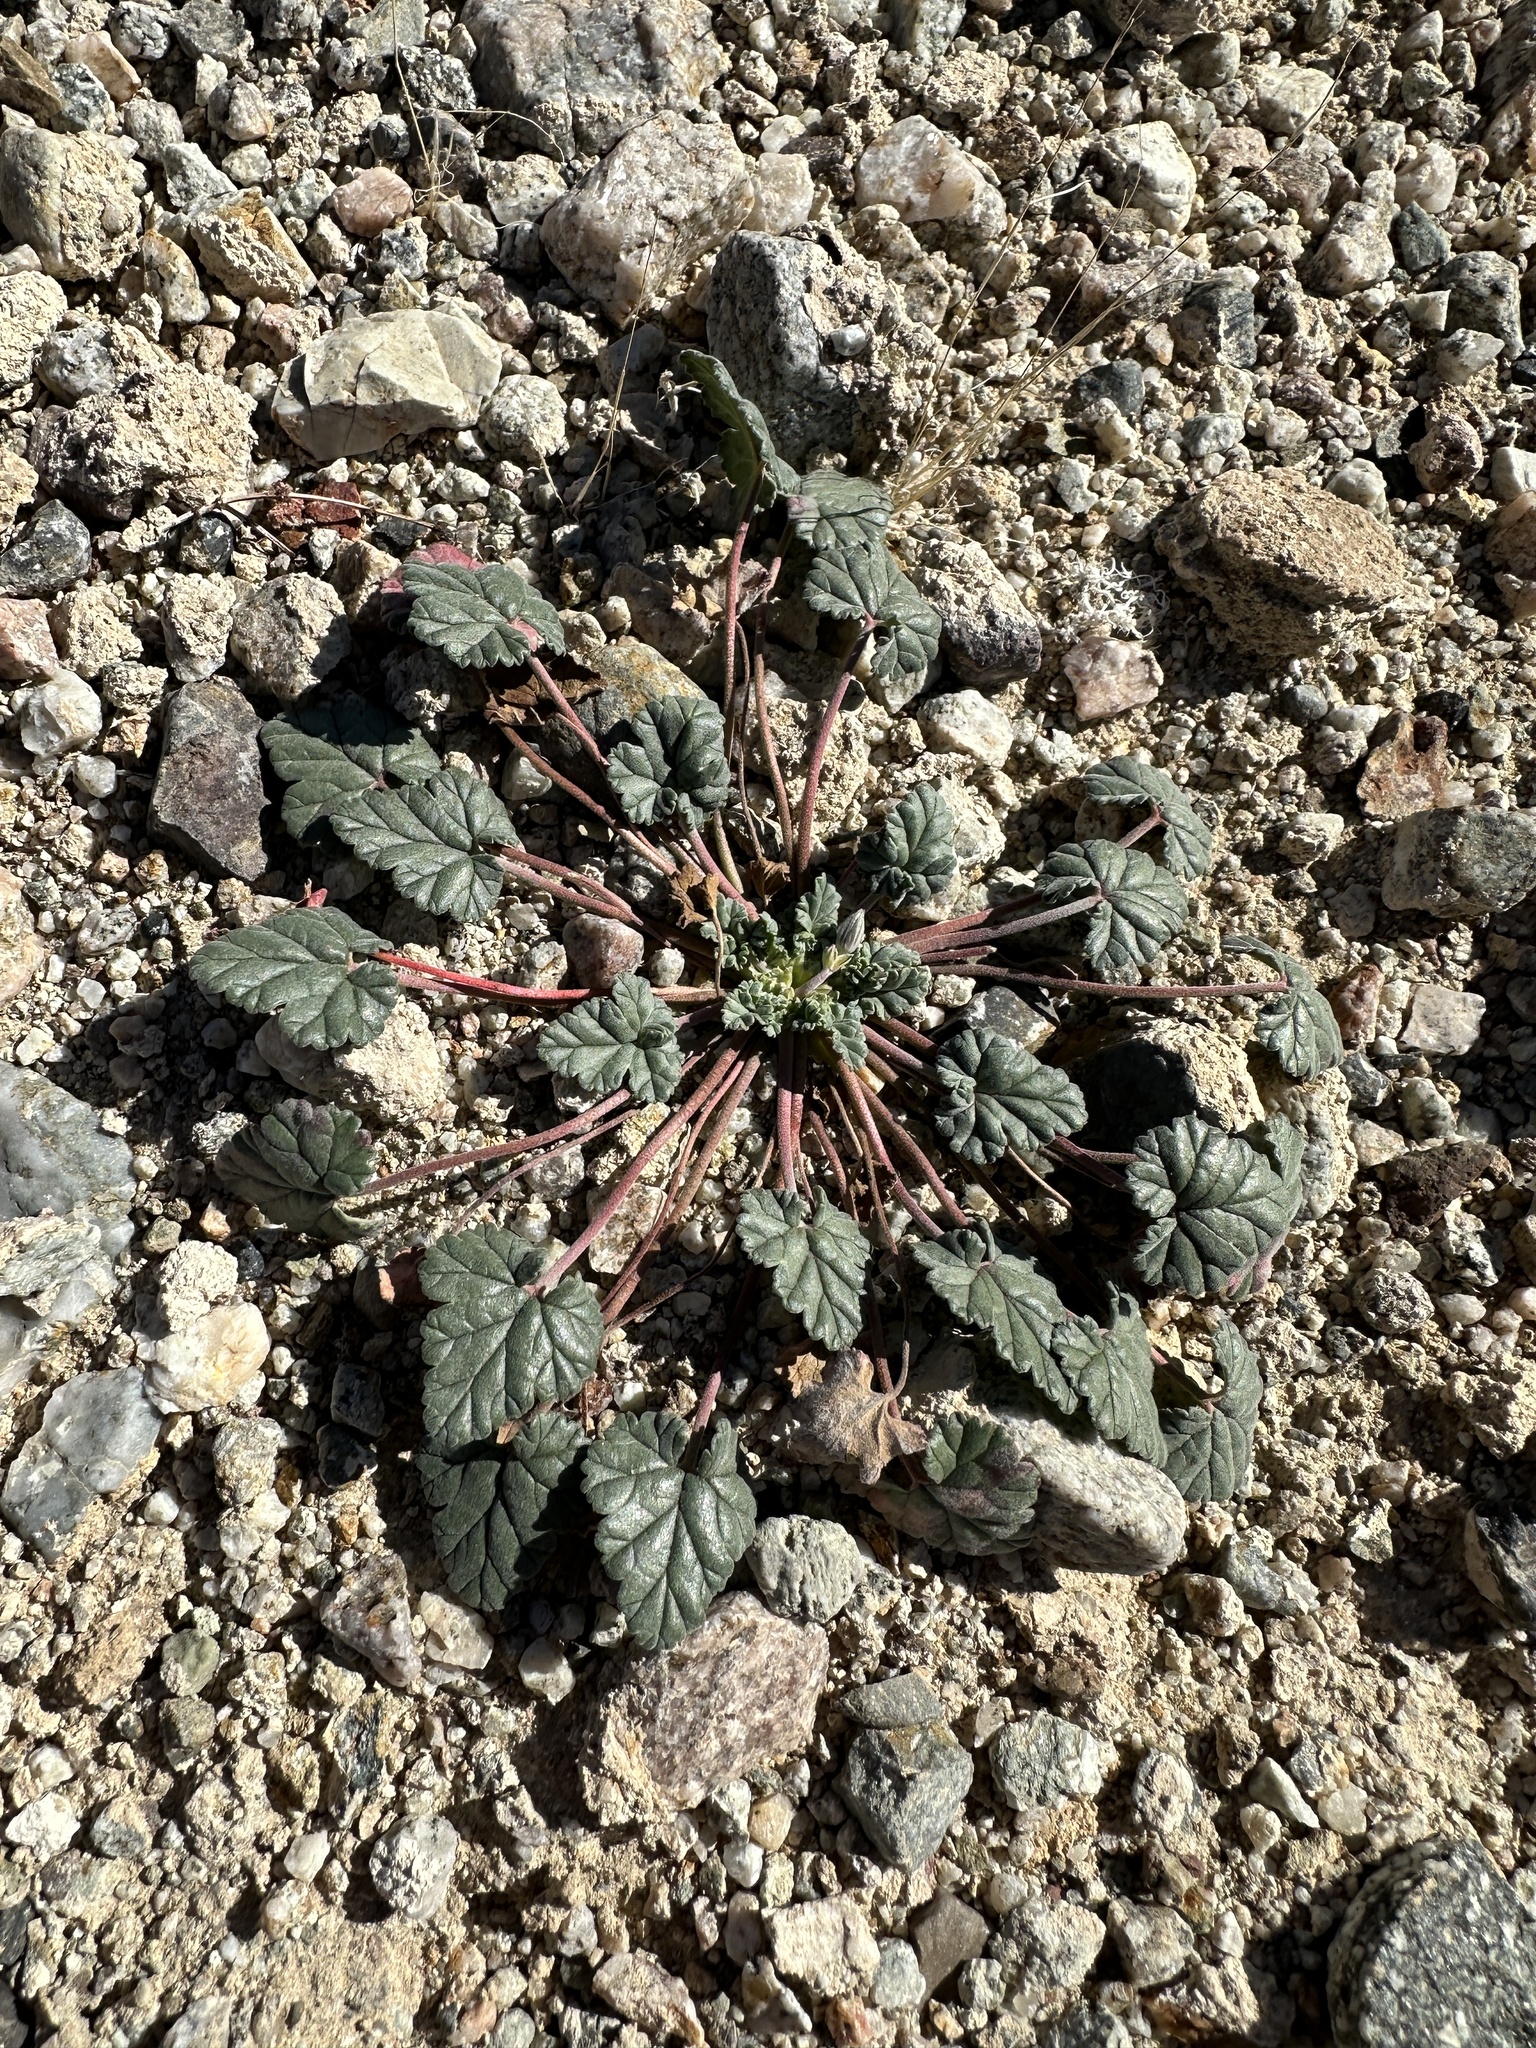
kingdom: Plantae
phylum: Tracheophyta
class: Magnoliopsida
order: Geraniales
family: Geraniaceae
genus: Erodium
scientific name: Erodium texanum
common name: Texas stork's-bill
